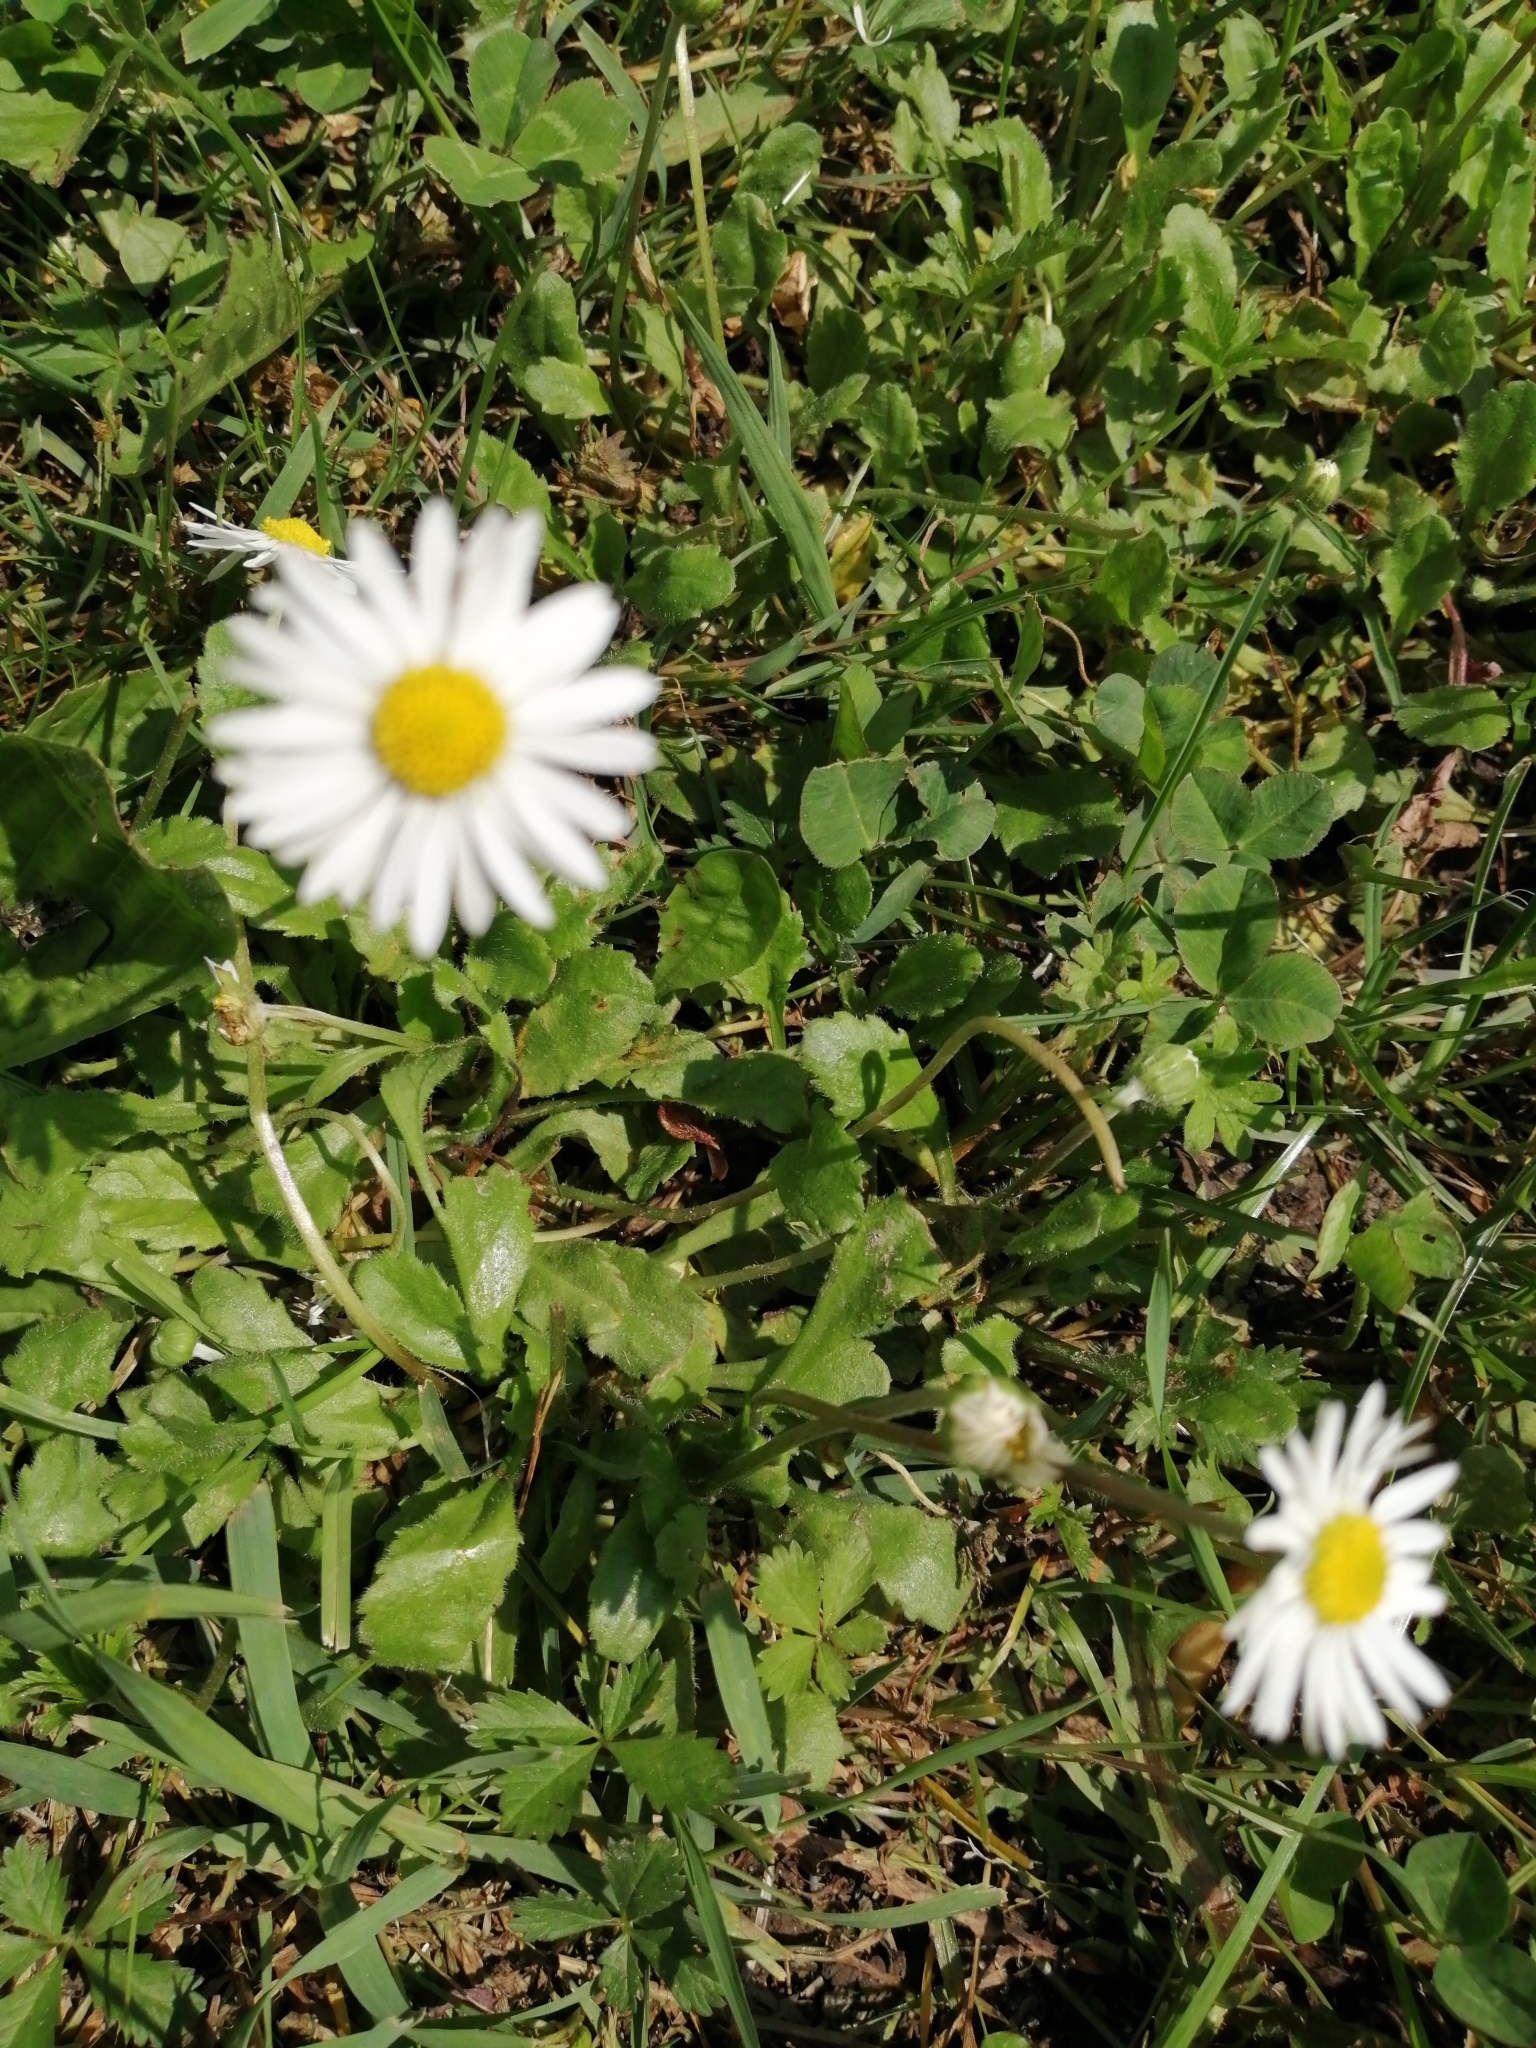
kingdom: Plantae
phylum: Tracheophyta
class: Magnoliopsida
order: Asterales
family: Asteraceae
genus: Bellis
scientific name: Bellis perennis
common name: Lawndaisy
